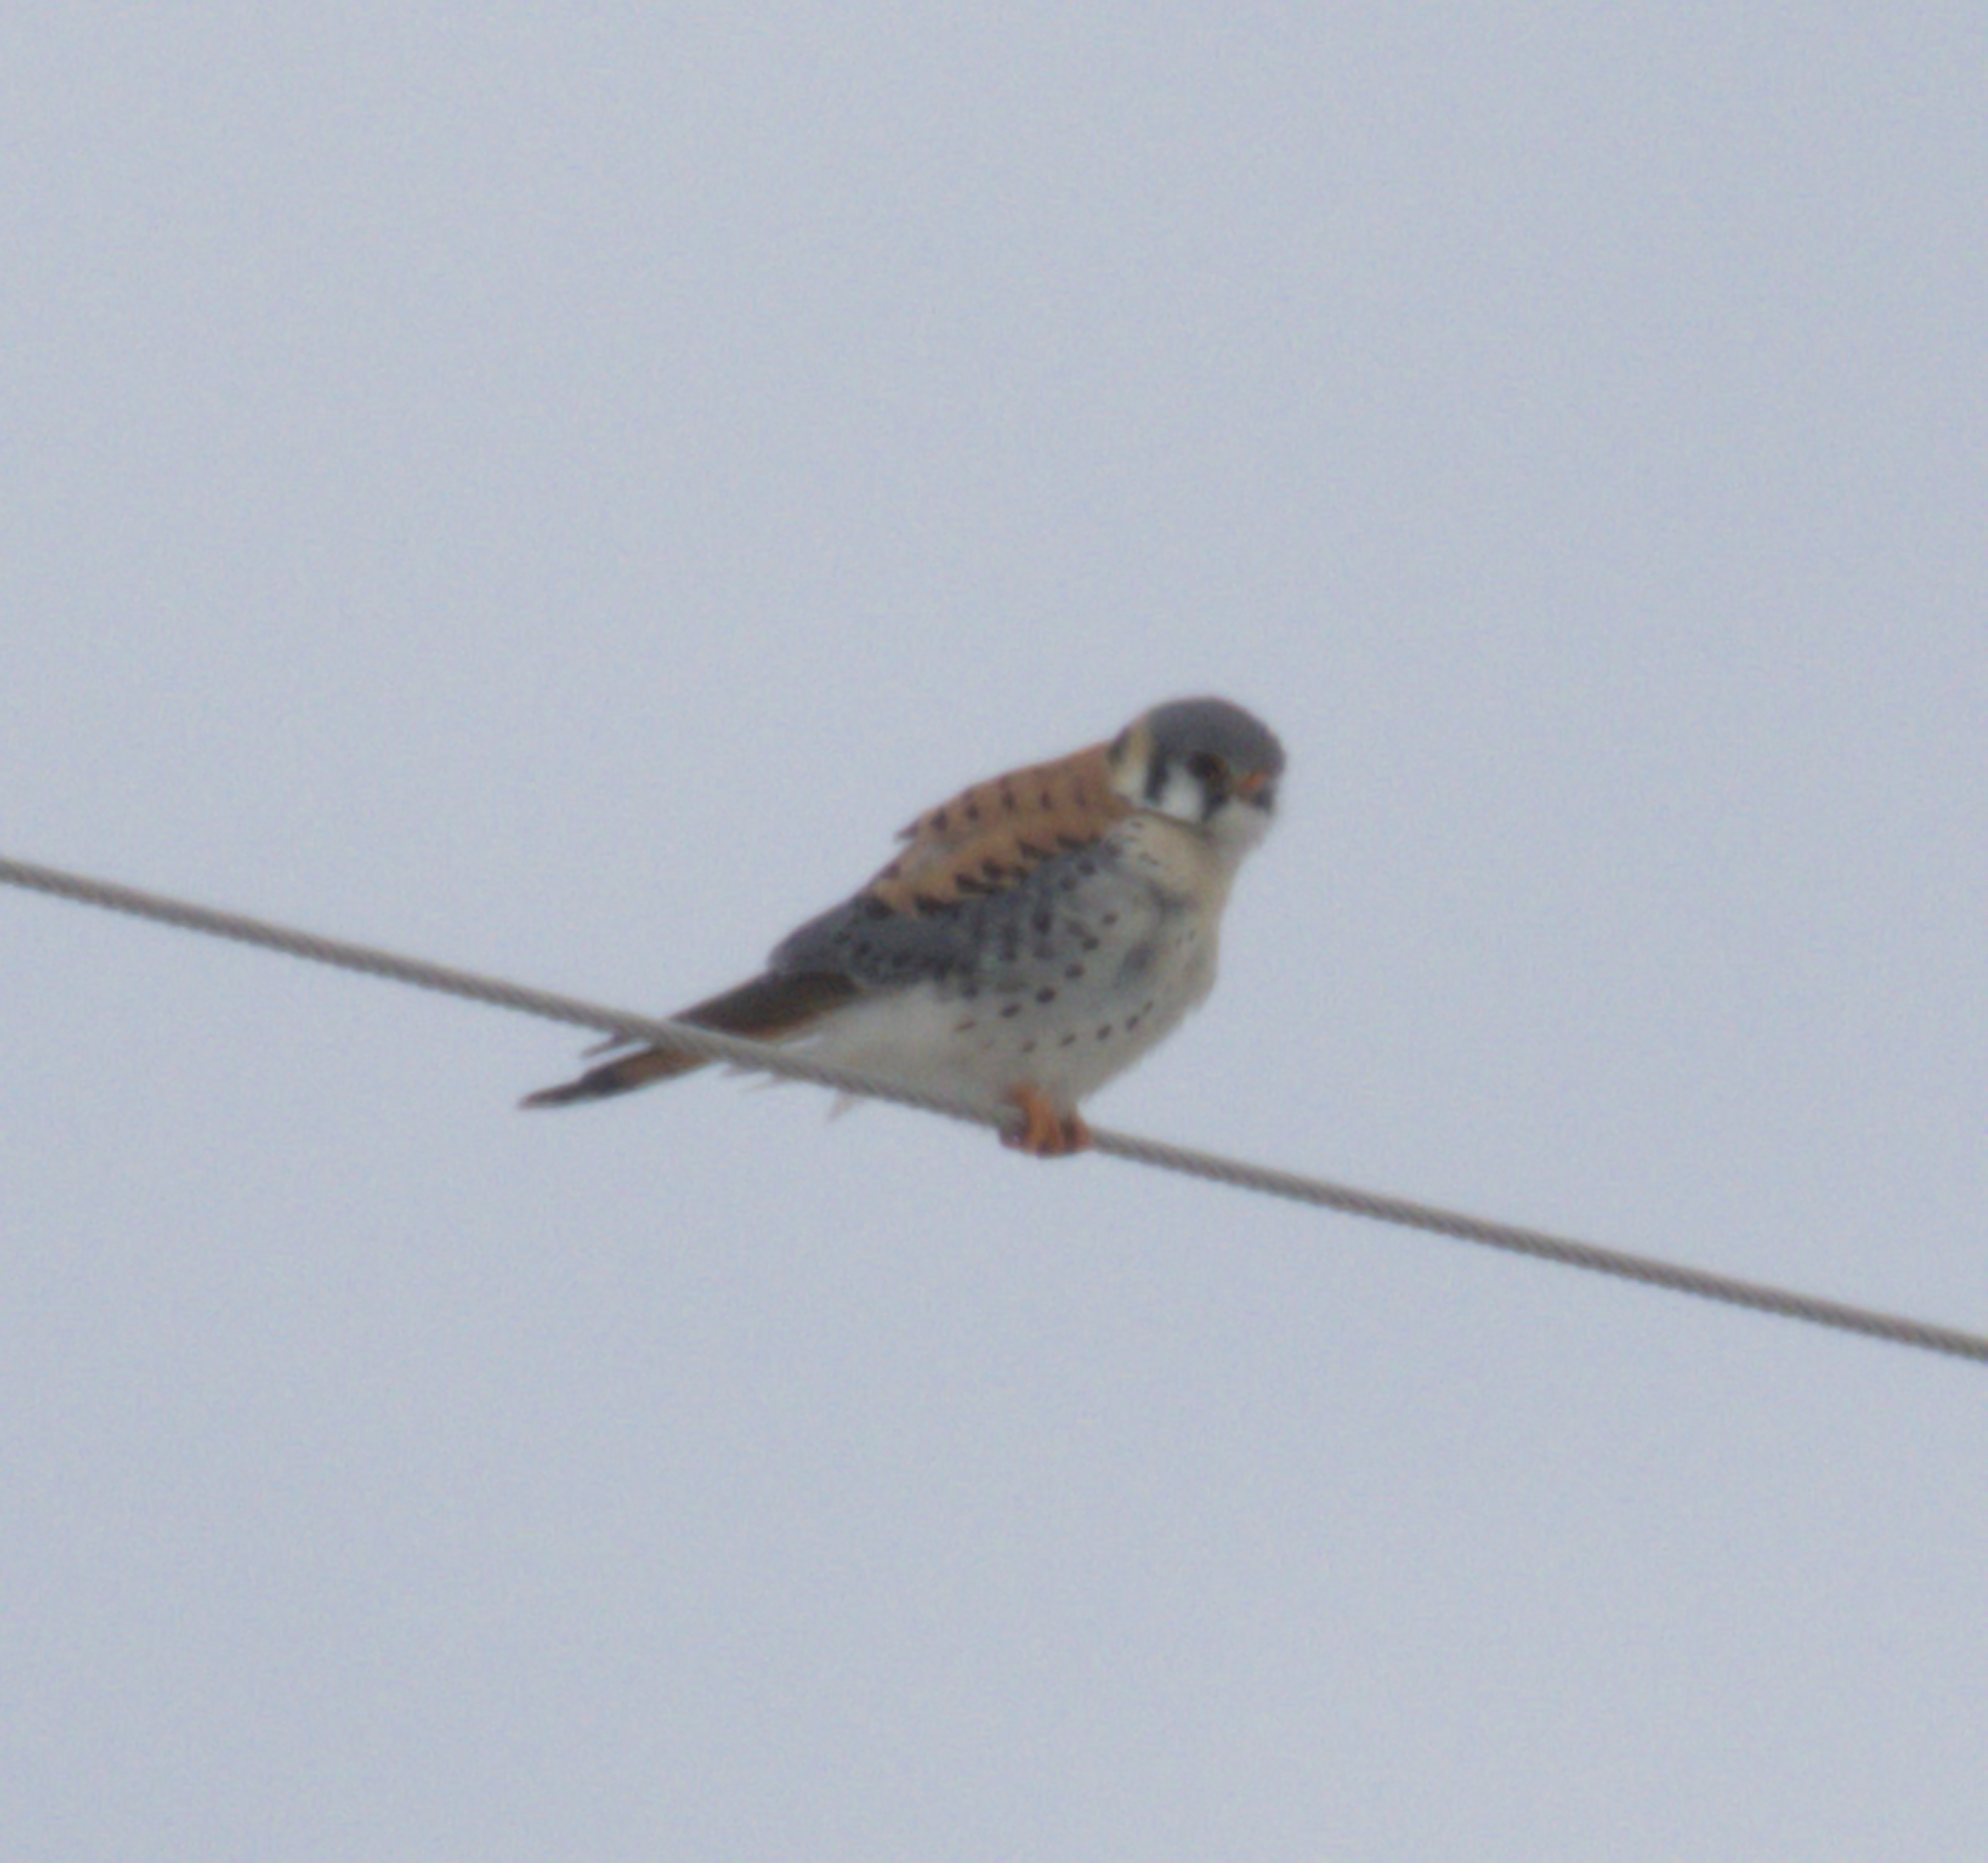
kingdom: Animalia
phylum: Chordata
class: Aves
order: Falconiformes
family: Falconidae
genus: Falco
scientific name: Falco sparverius
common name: American kestrel
